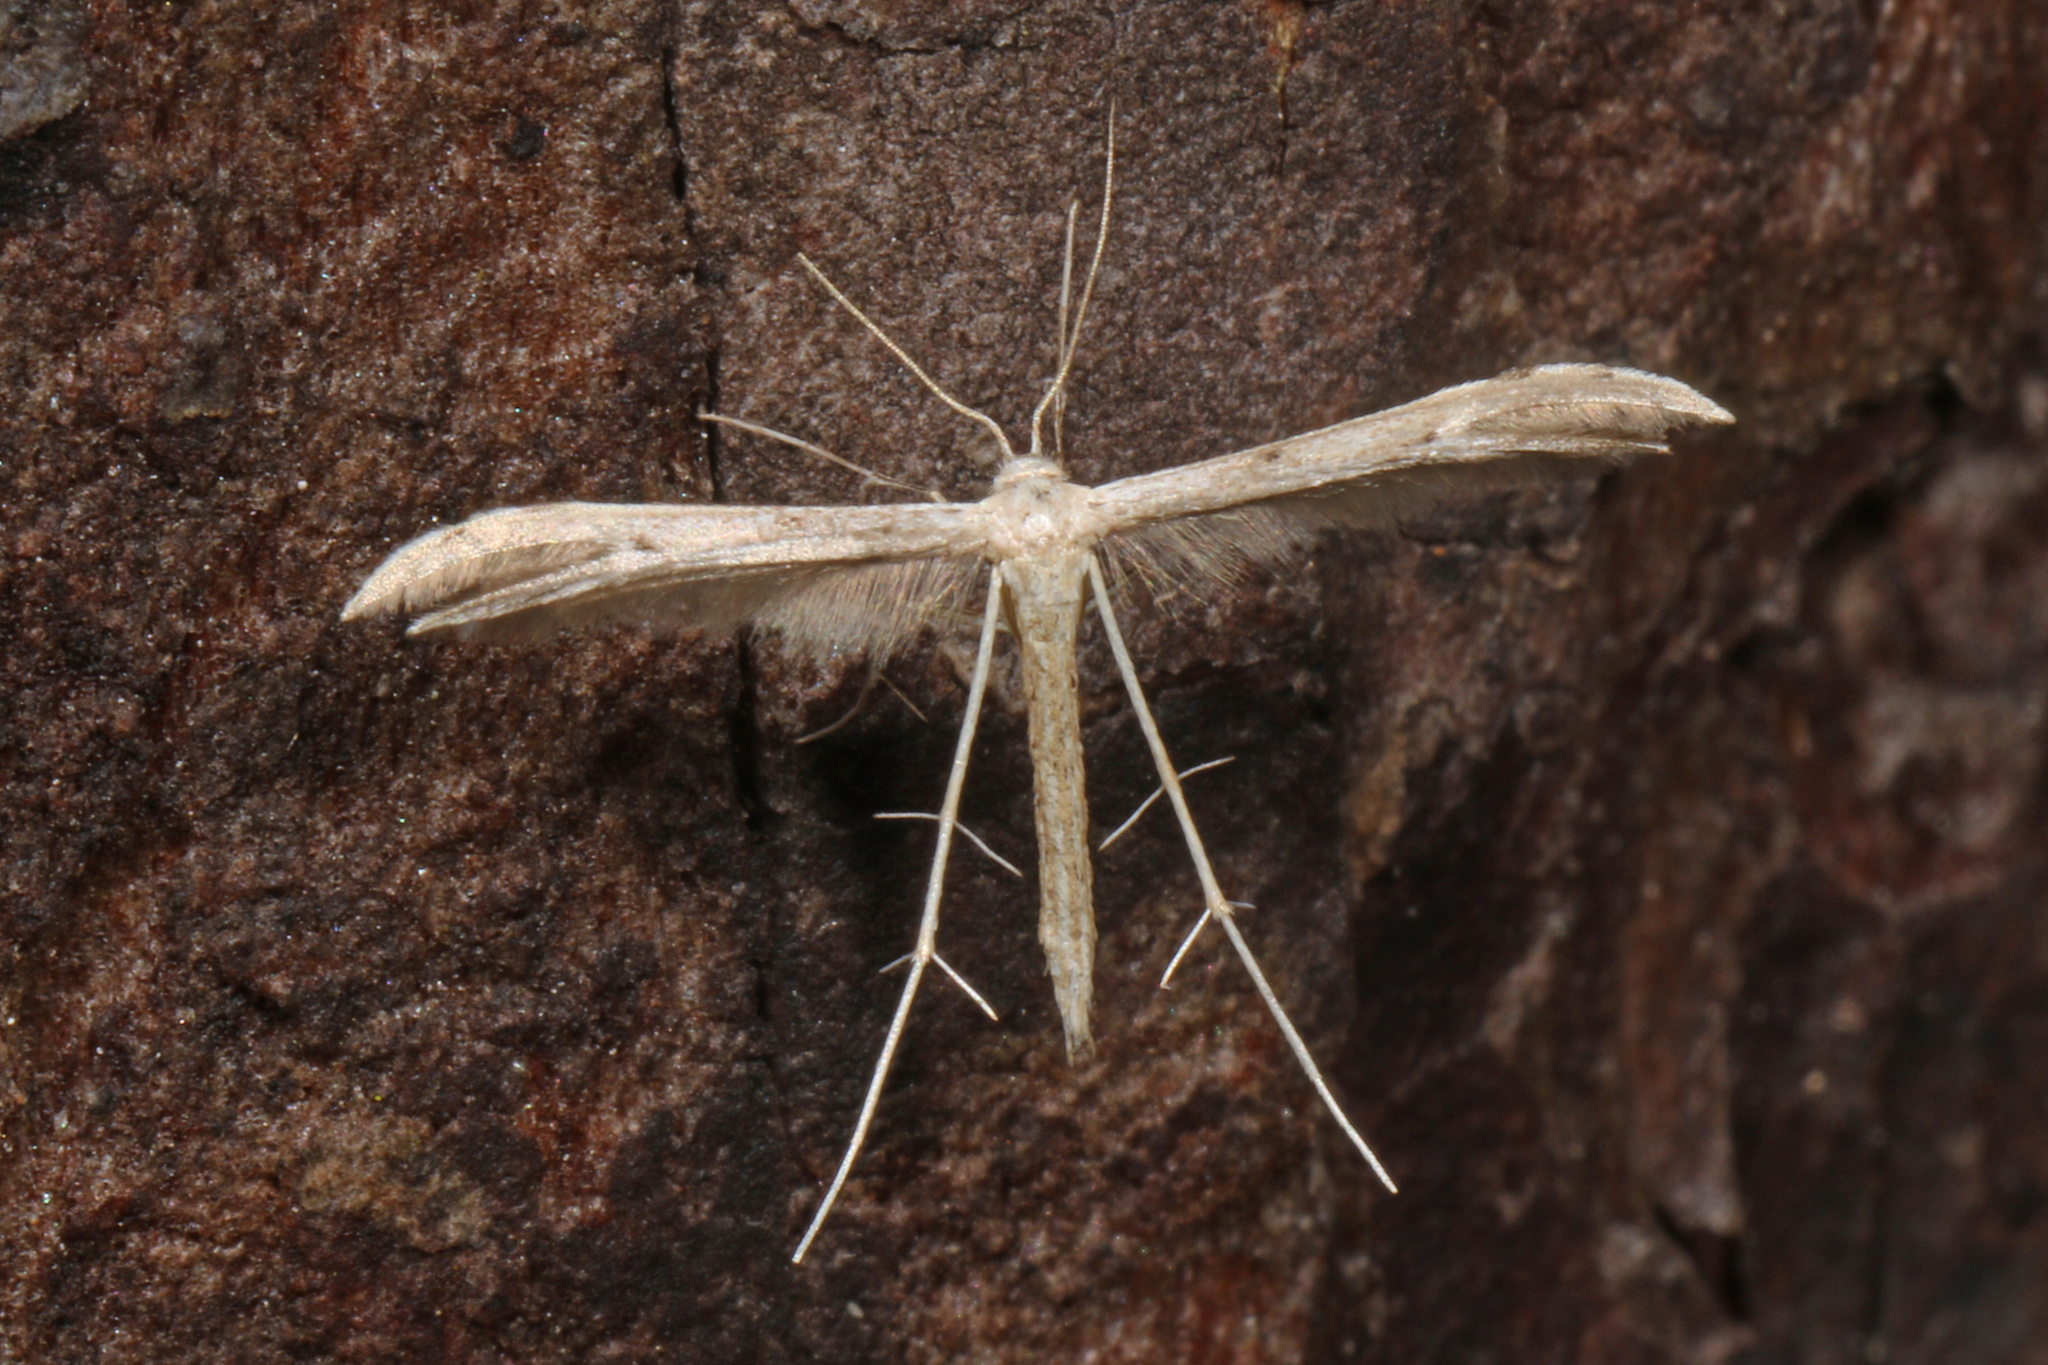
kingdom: Animalia
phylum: Arthropoda
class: Insecta
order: Lepidoptera
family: Pterophoridae
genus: Pselnophorus
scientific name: Pselnophorus belfragei
